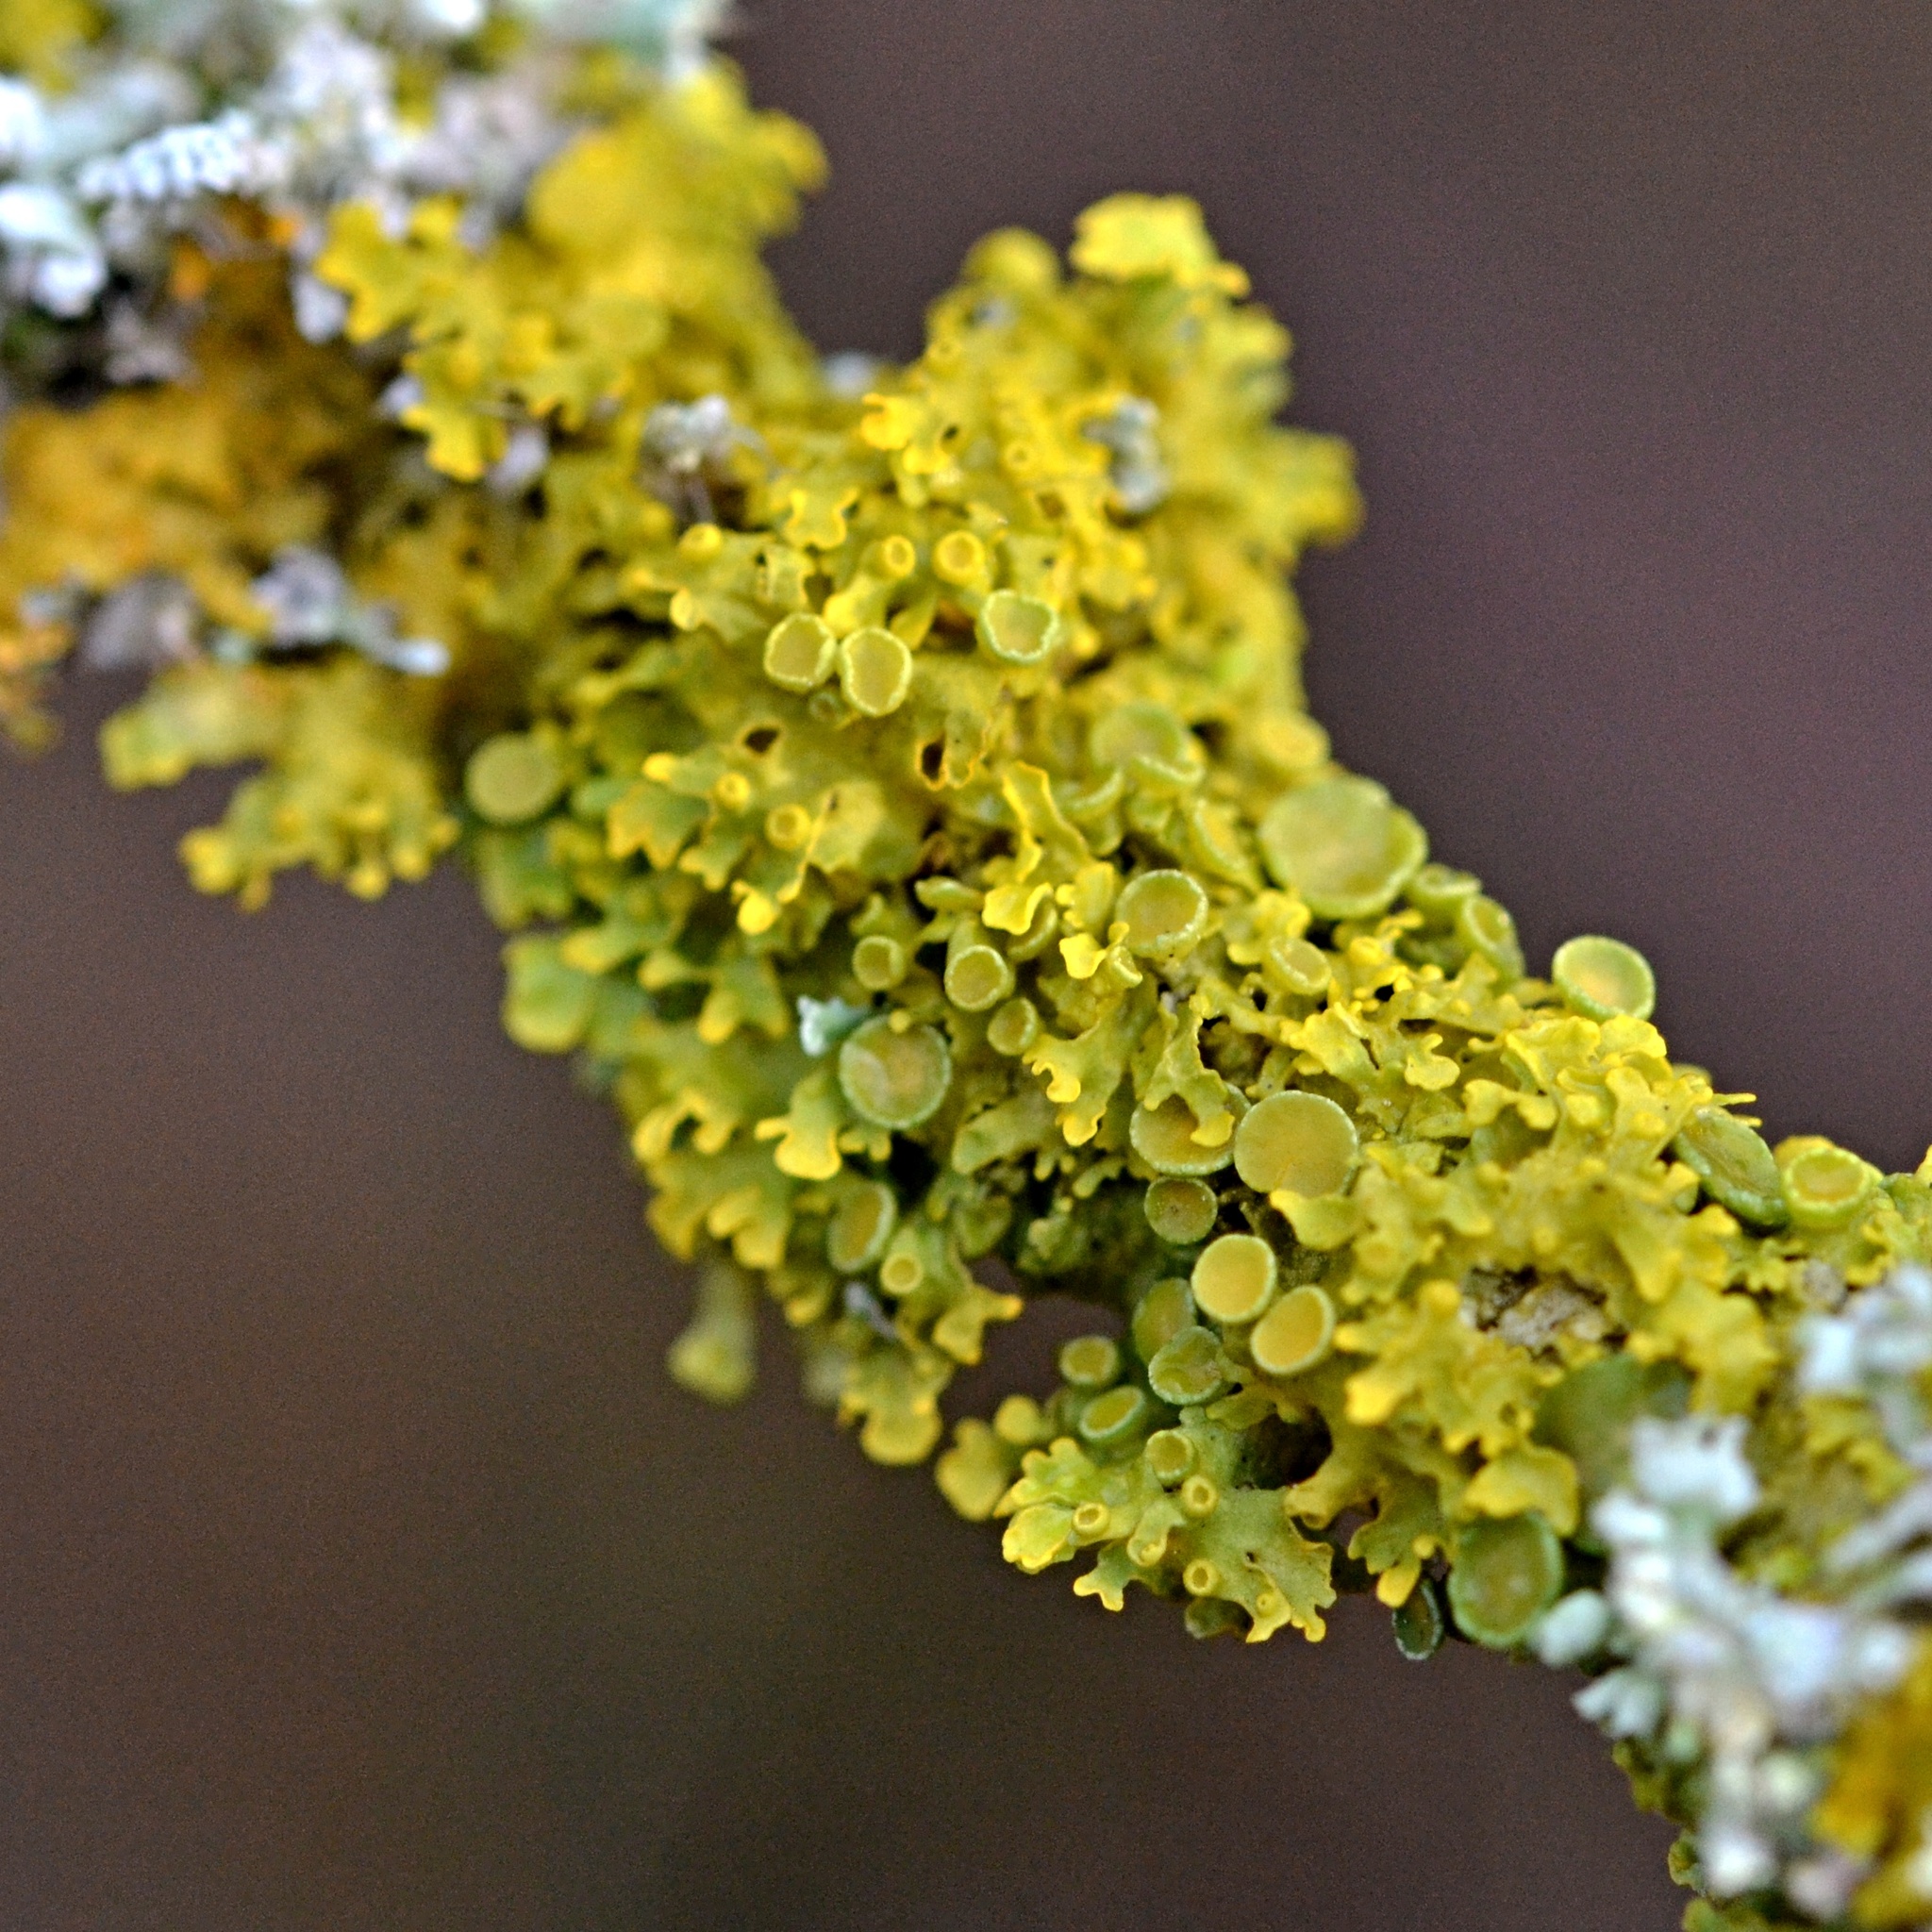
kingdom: Fungi
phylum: Ascomycota
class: Lecanoromycetes
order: Teloschistales
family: Teloschistaceae
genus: Xanthoria
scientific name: Xanthoria parietina
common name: Common orange lichen
